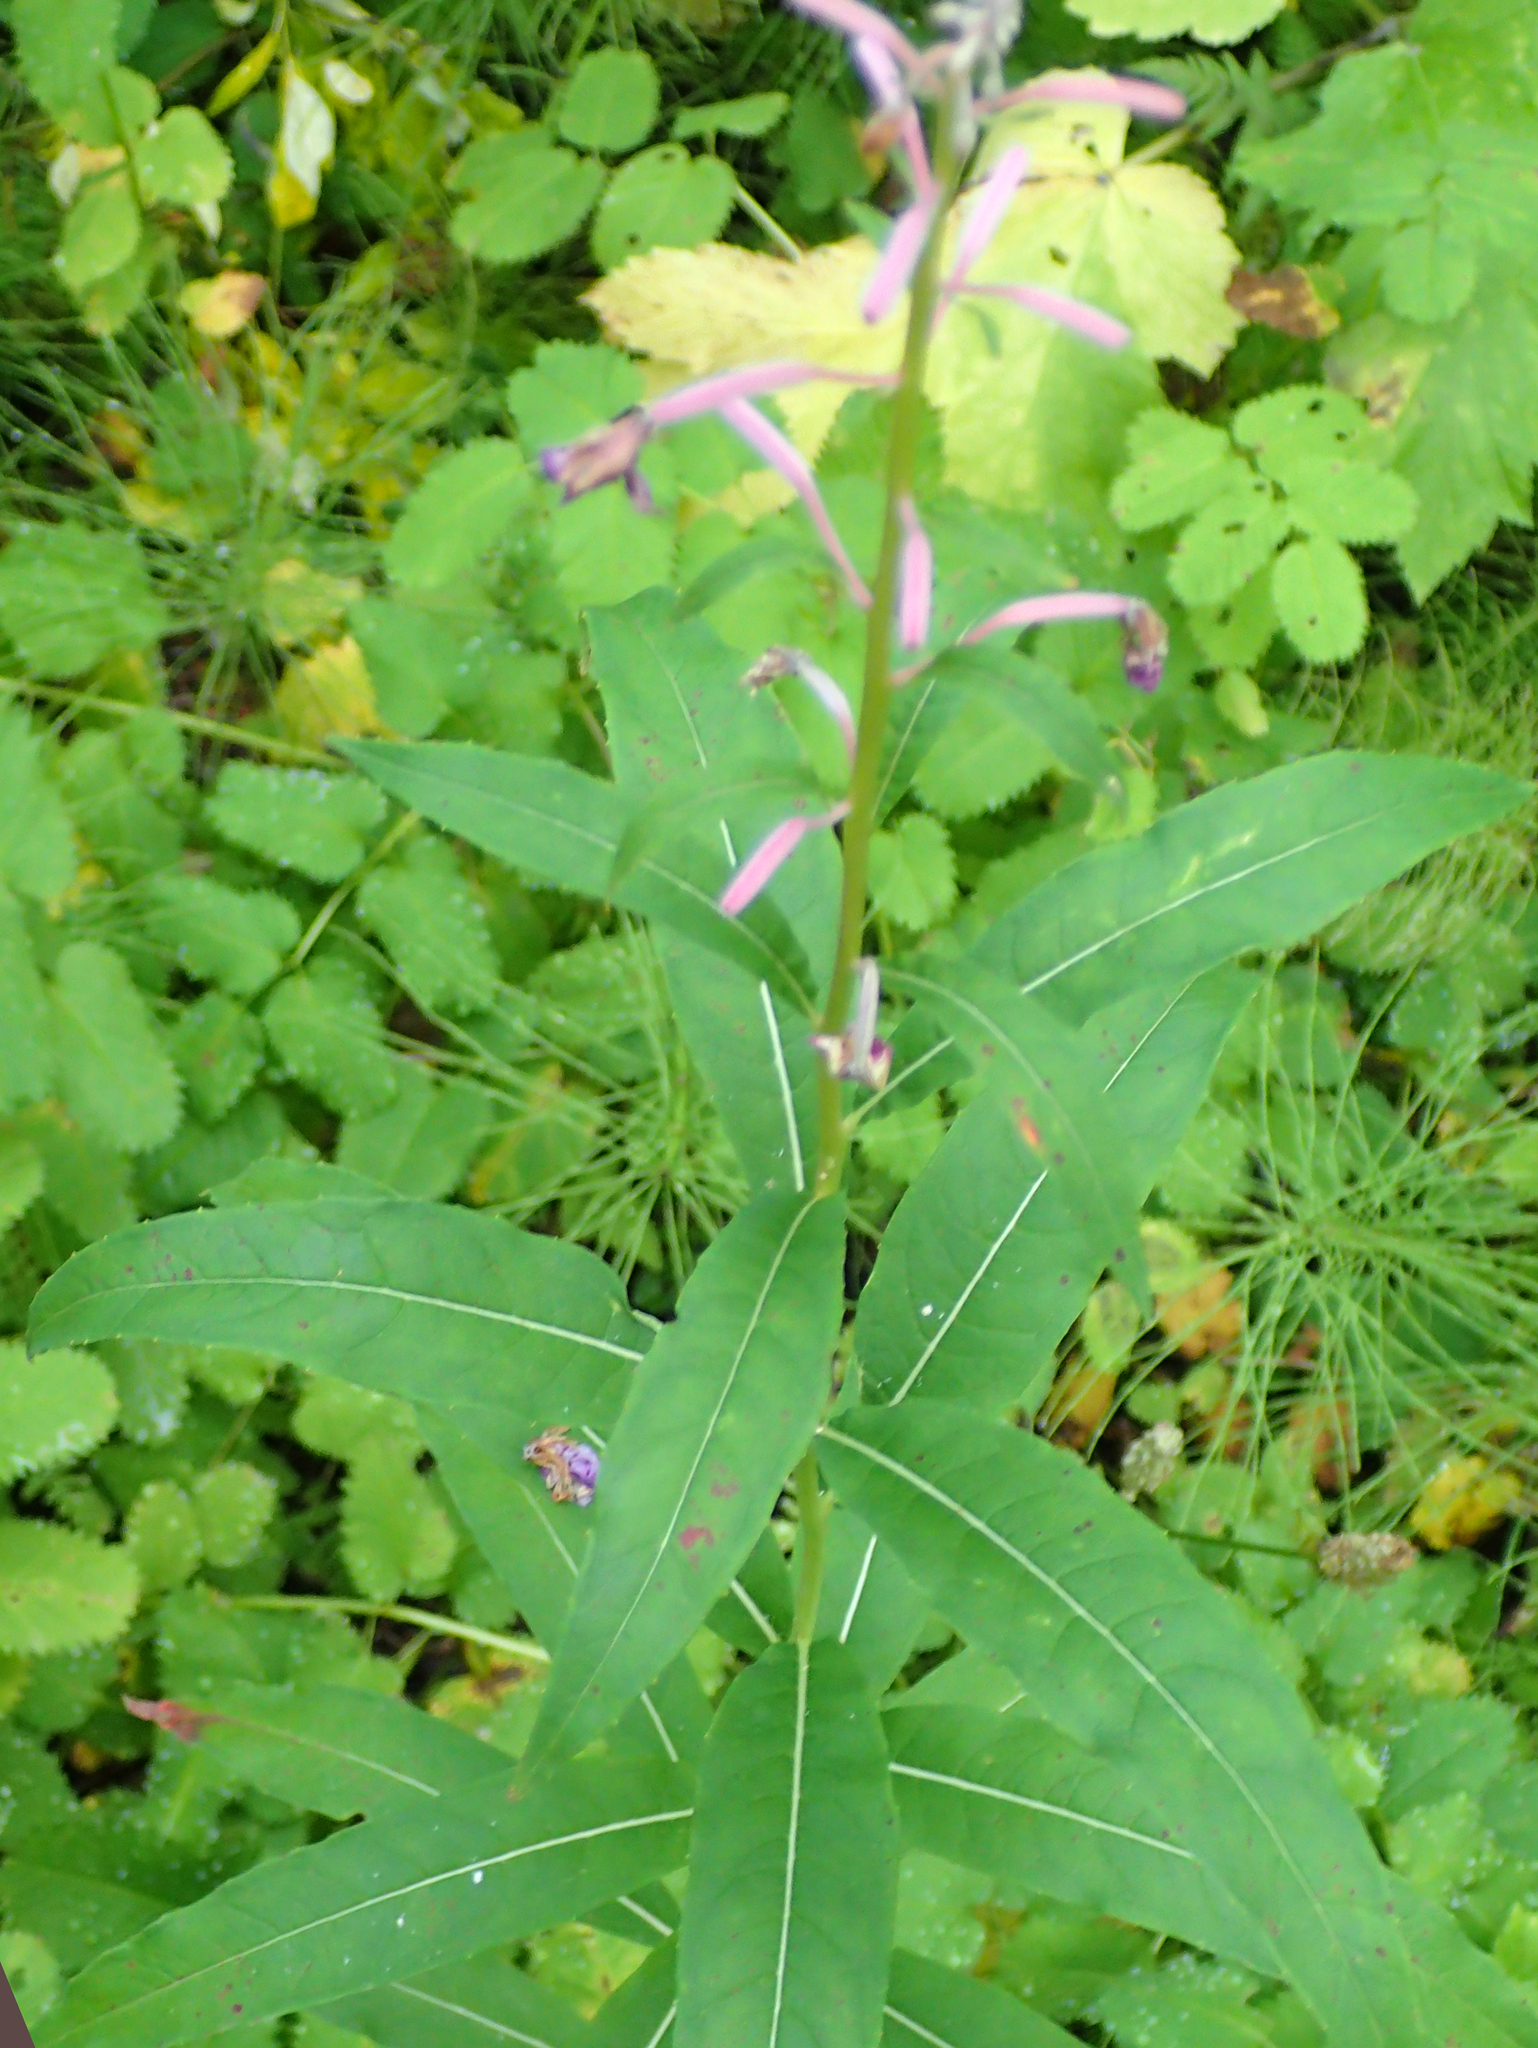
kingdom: Plantae
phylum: Tracheophyta
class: Magnoliopsida
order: Myrtales
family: Onagraceae
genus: Chamaenerion
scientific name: Chamaenerion angustifolium
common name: Fireweed
